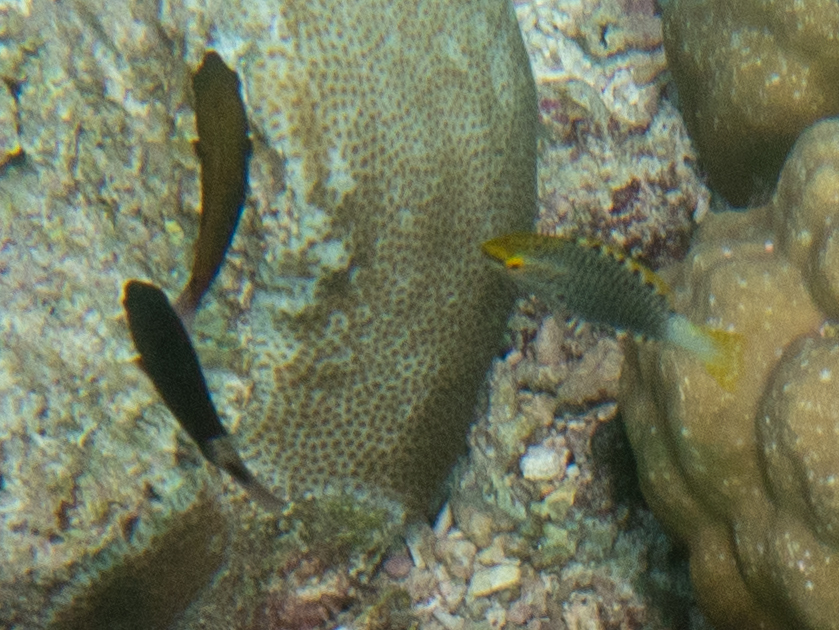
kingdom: Animalia
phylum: Chordata
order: Perciformes
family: Scaridae
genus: Scarus
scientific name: Scarus prasiognathos
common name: Singapore parrotfish
